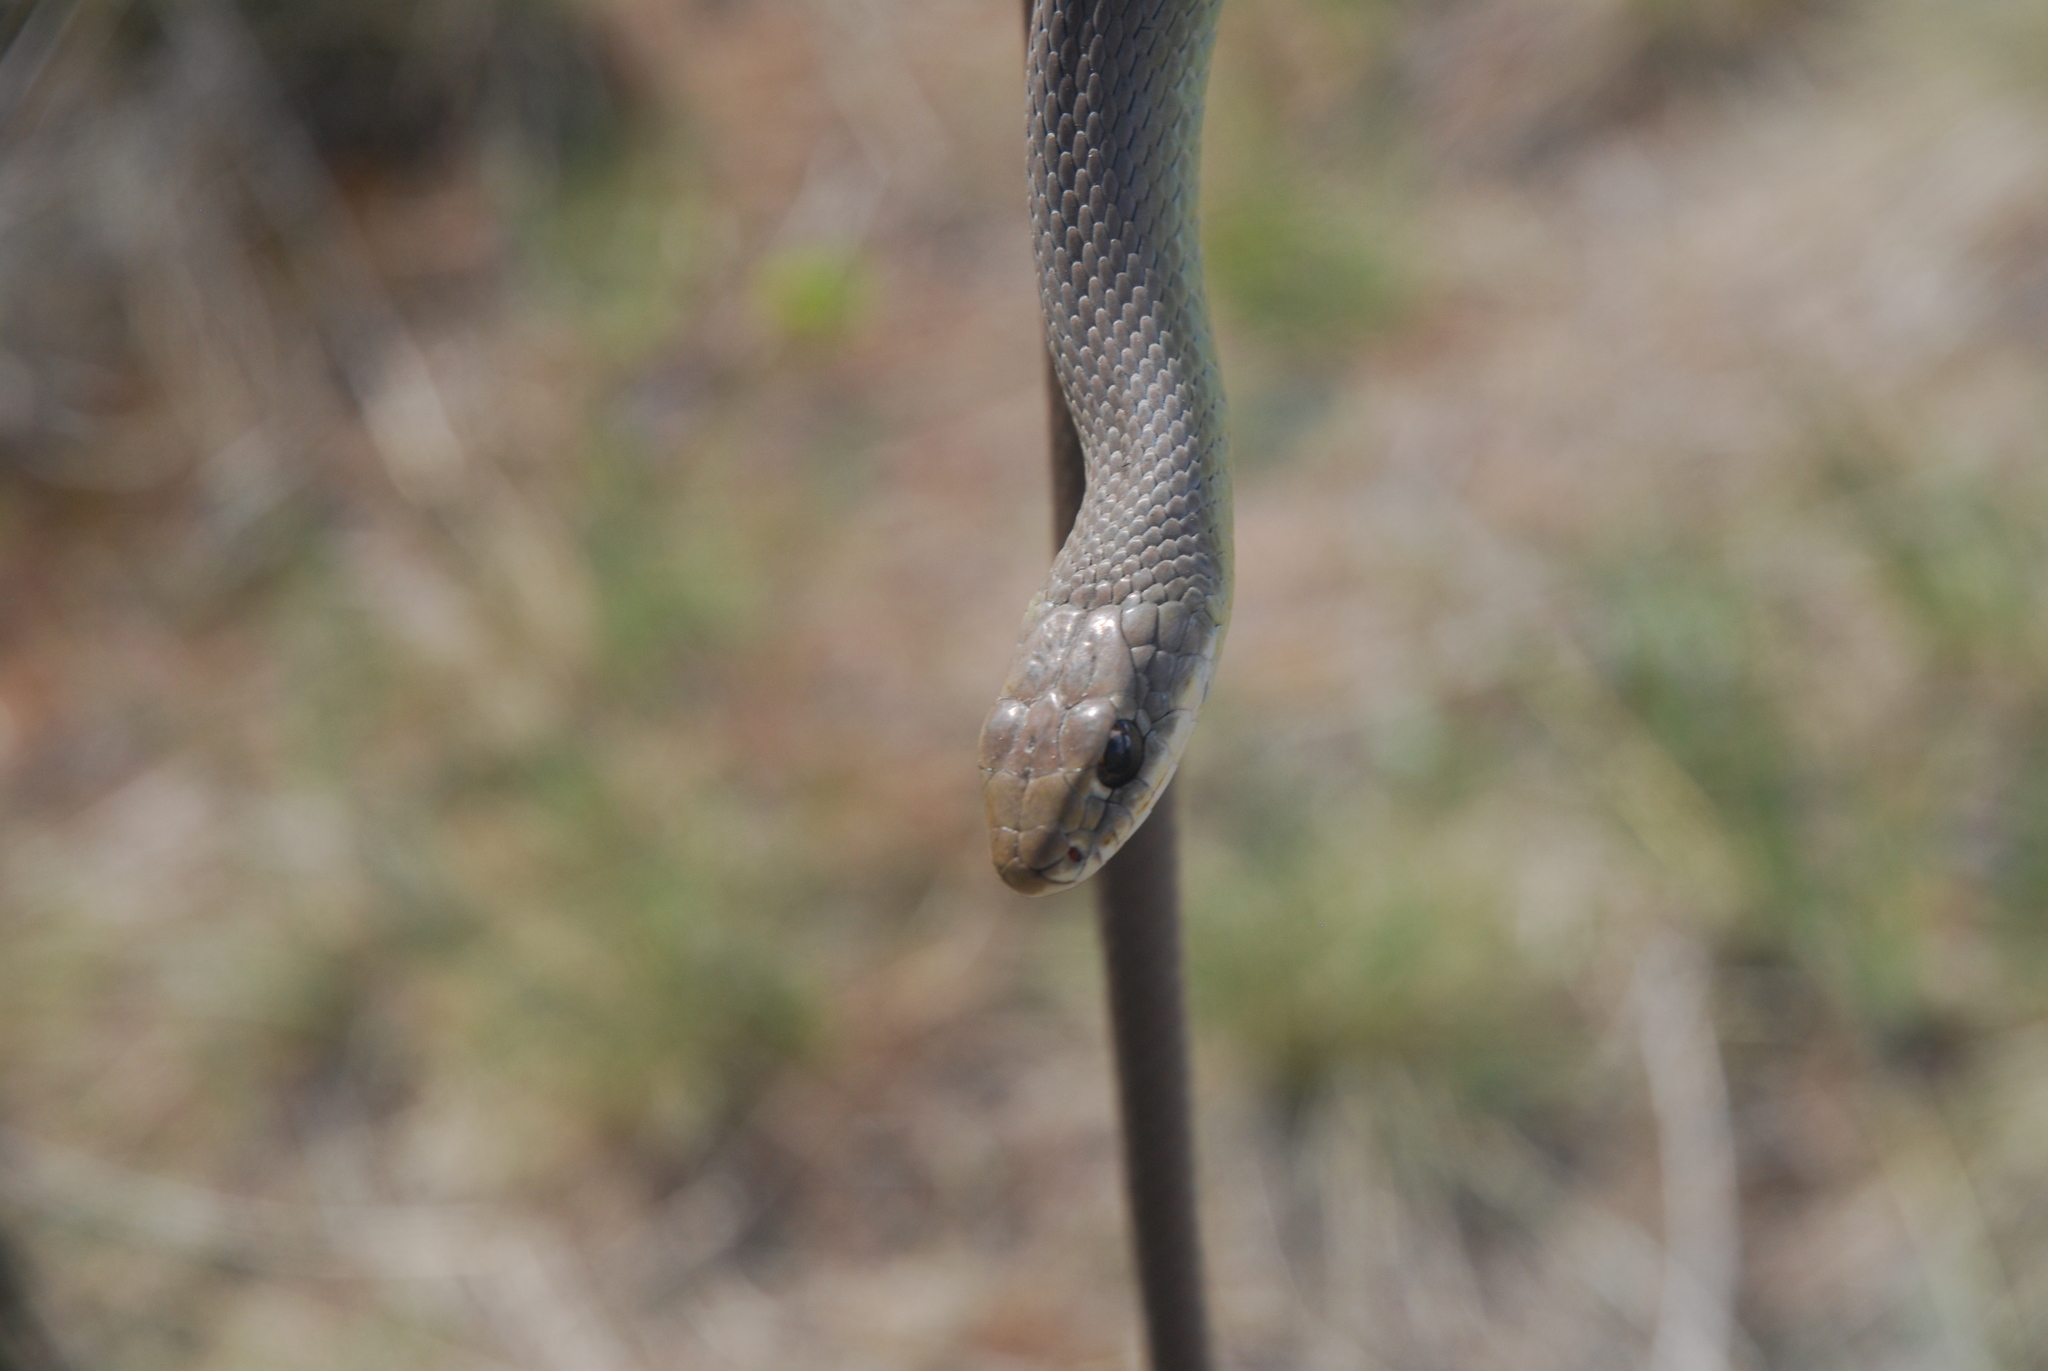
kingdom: Animalia
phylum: Chordata
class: Squamata
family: Colubridae
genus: Coluber
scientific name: Coluber constrictor
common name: Eastern racer
